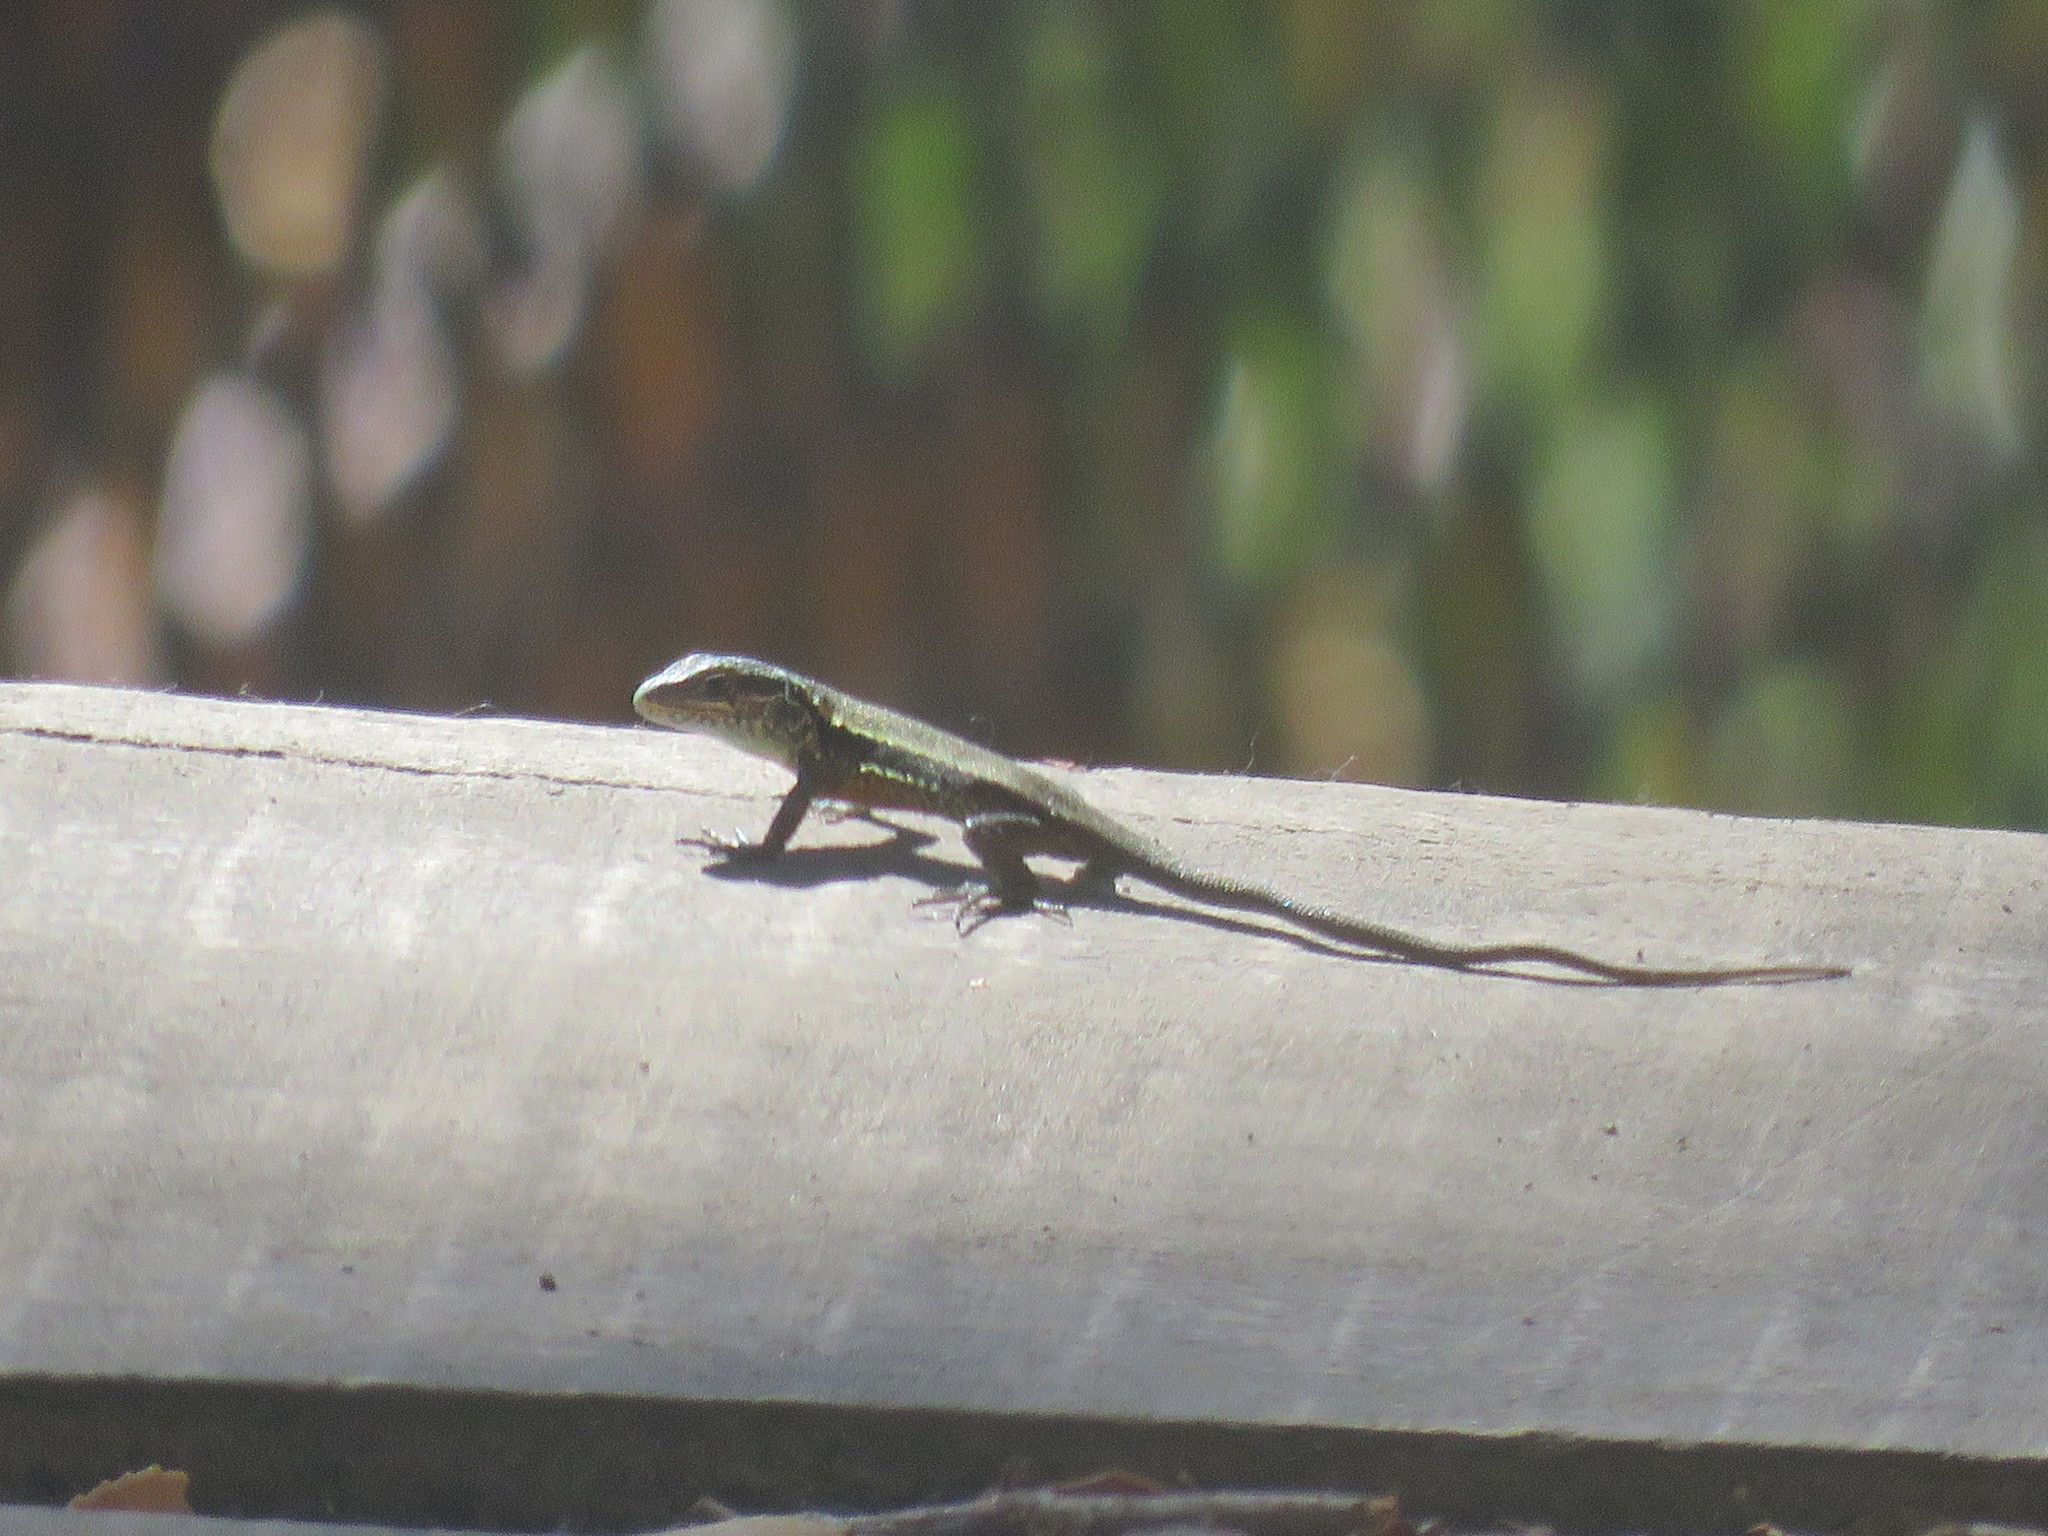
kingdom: Animalia
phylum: Chordata
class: Squamata
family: Liolaemidae
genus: Liolaemus
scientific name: Liolaemus pictus
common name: Painted tree iguana
